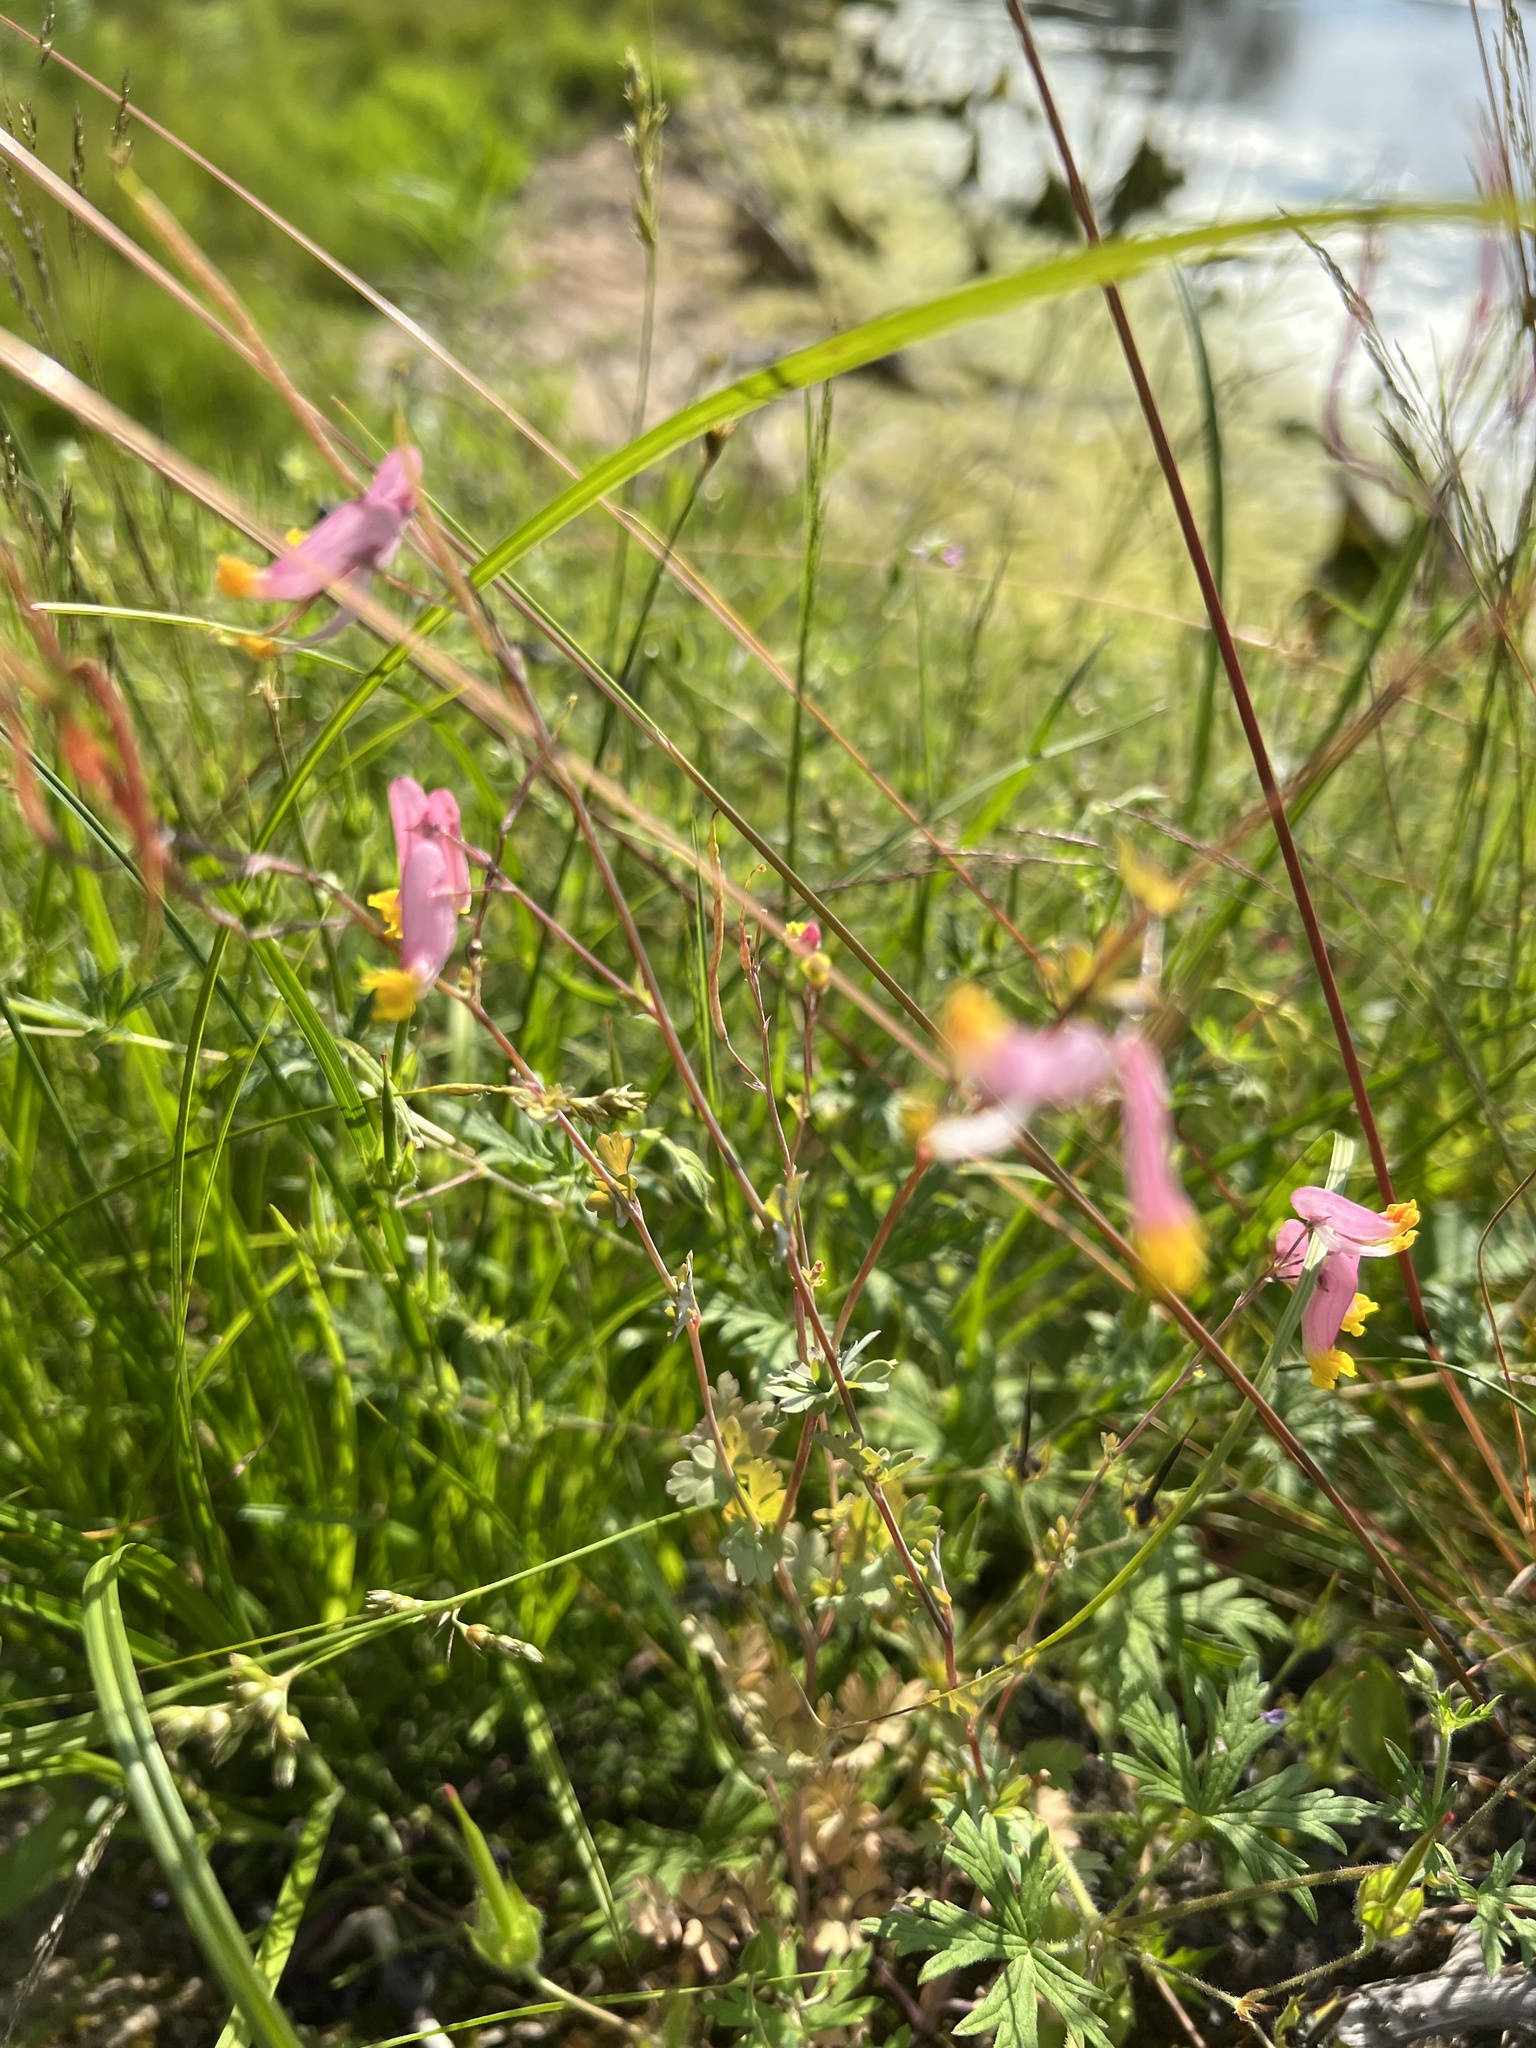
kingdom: Plantae
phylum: Tracheophyta
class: Magnoliopsida
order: Ranunculales
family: Papaveraceae
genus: Capnoides
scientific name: Capnoides sempervirens
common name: Rock harlequin
